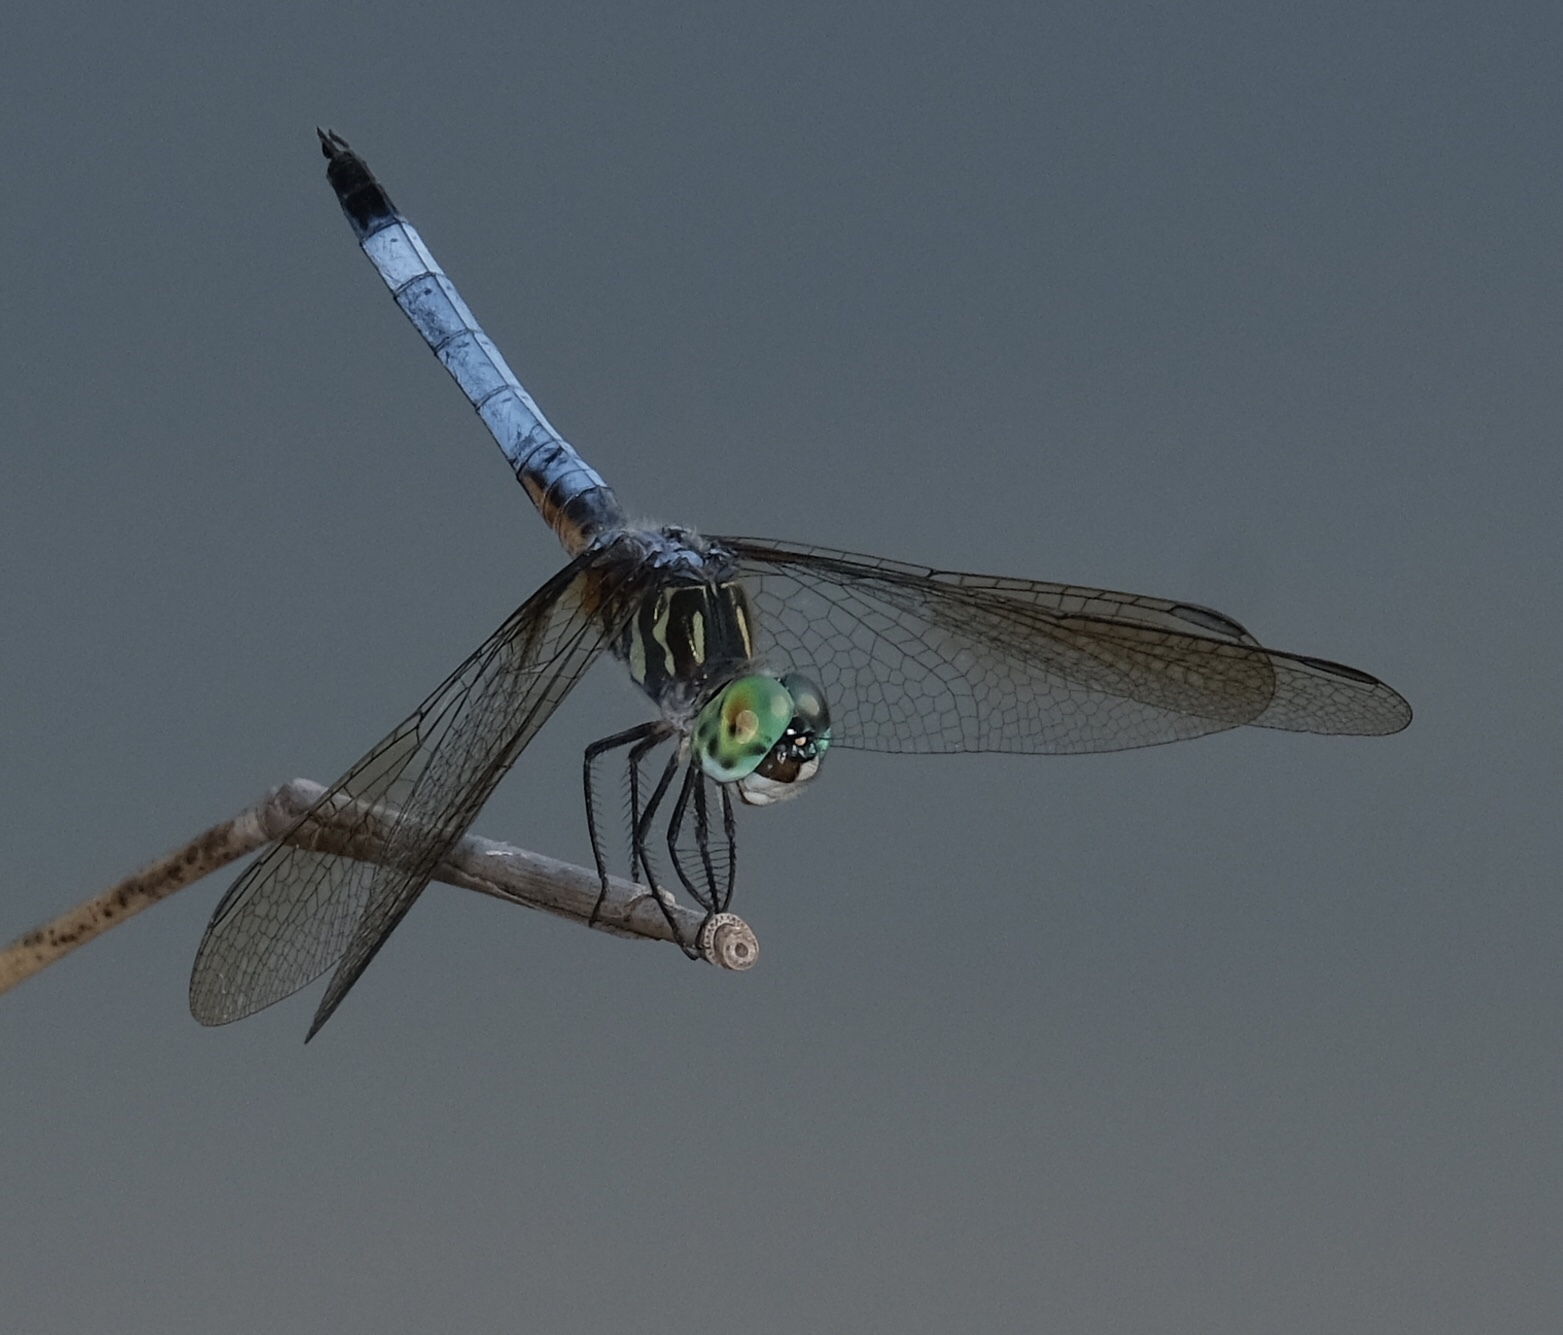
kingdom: Animalia
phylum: Arthropoda
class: Insecta
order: Odonata
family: Libellulidae
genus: Pachydiplax
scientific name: Pachydiplax longipennis
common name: Blue dasher
